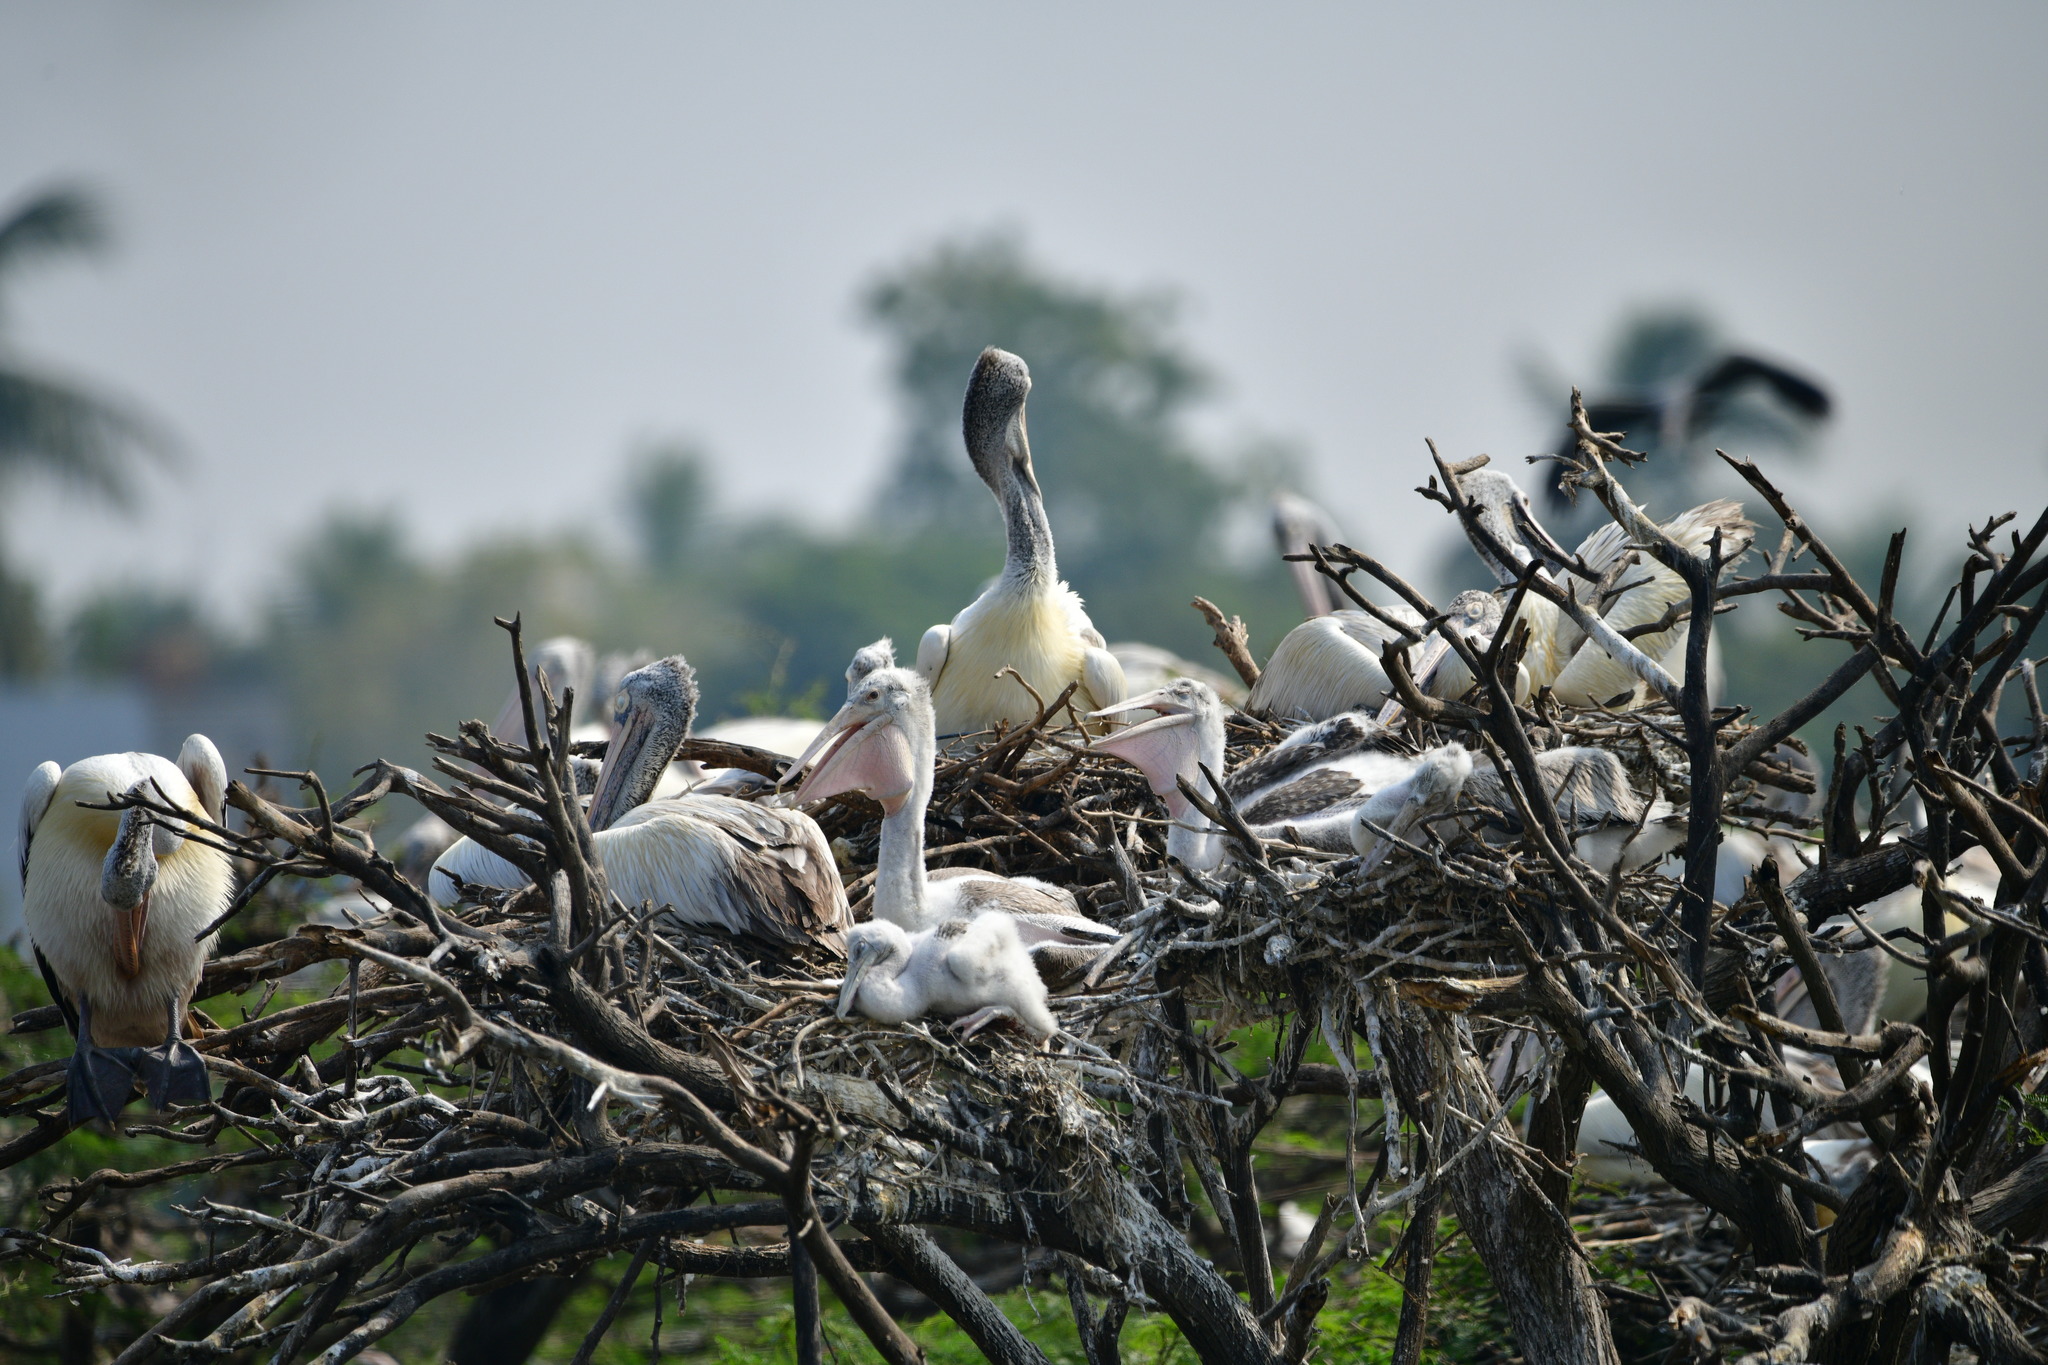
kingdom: Animalia
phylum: Chordata
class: Aves
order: Pelecaniformes
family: Pelecanidae
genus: Pelecanus
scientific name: Pelecanus philippensis
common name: Spot-billed pelican
